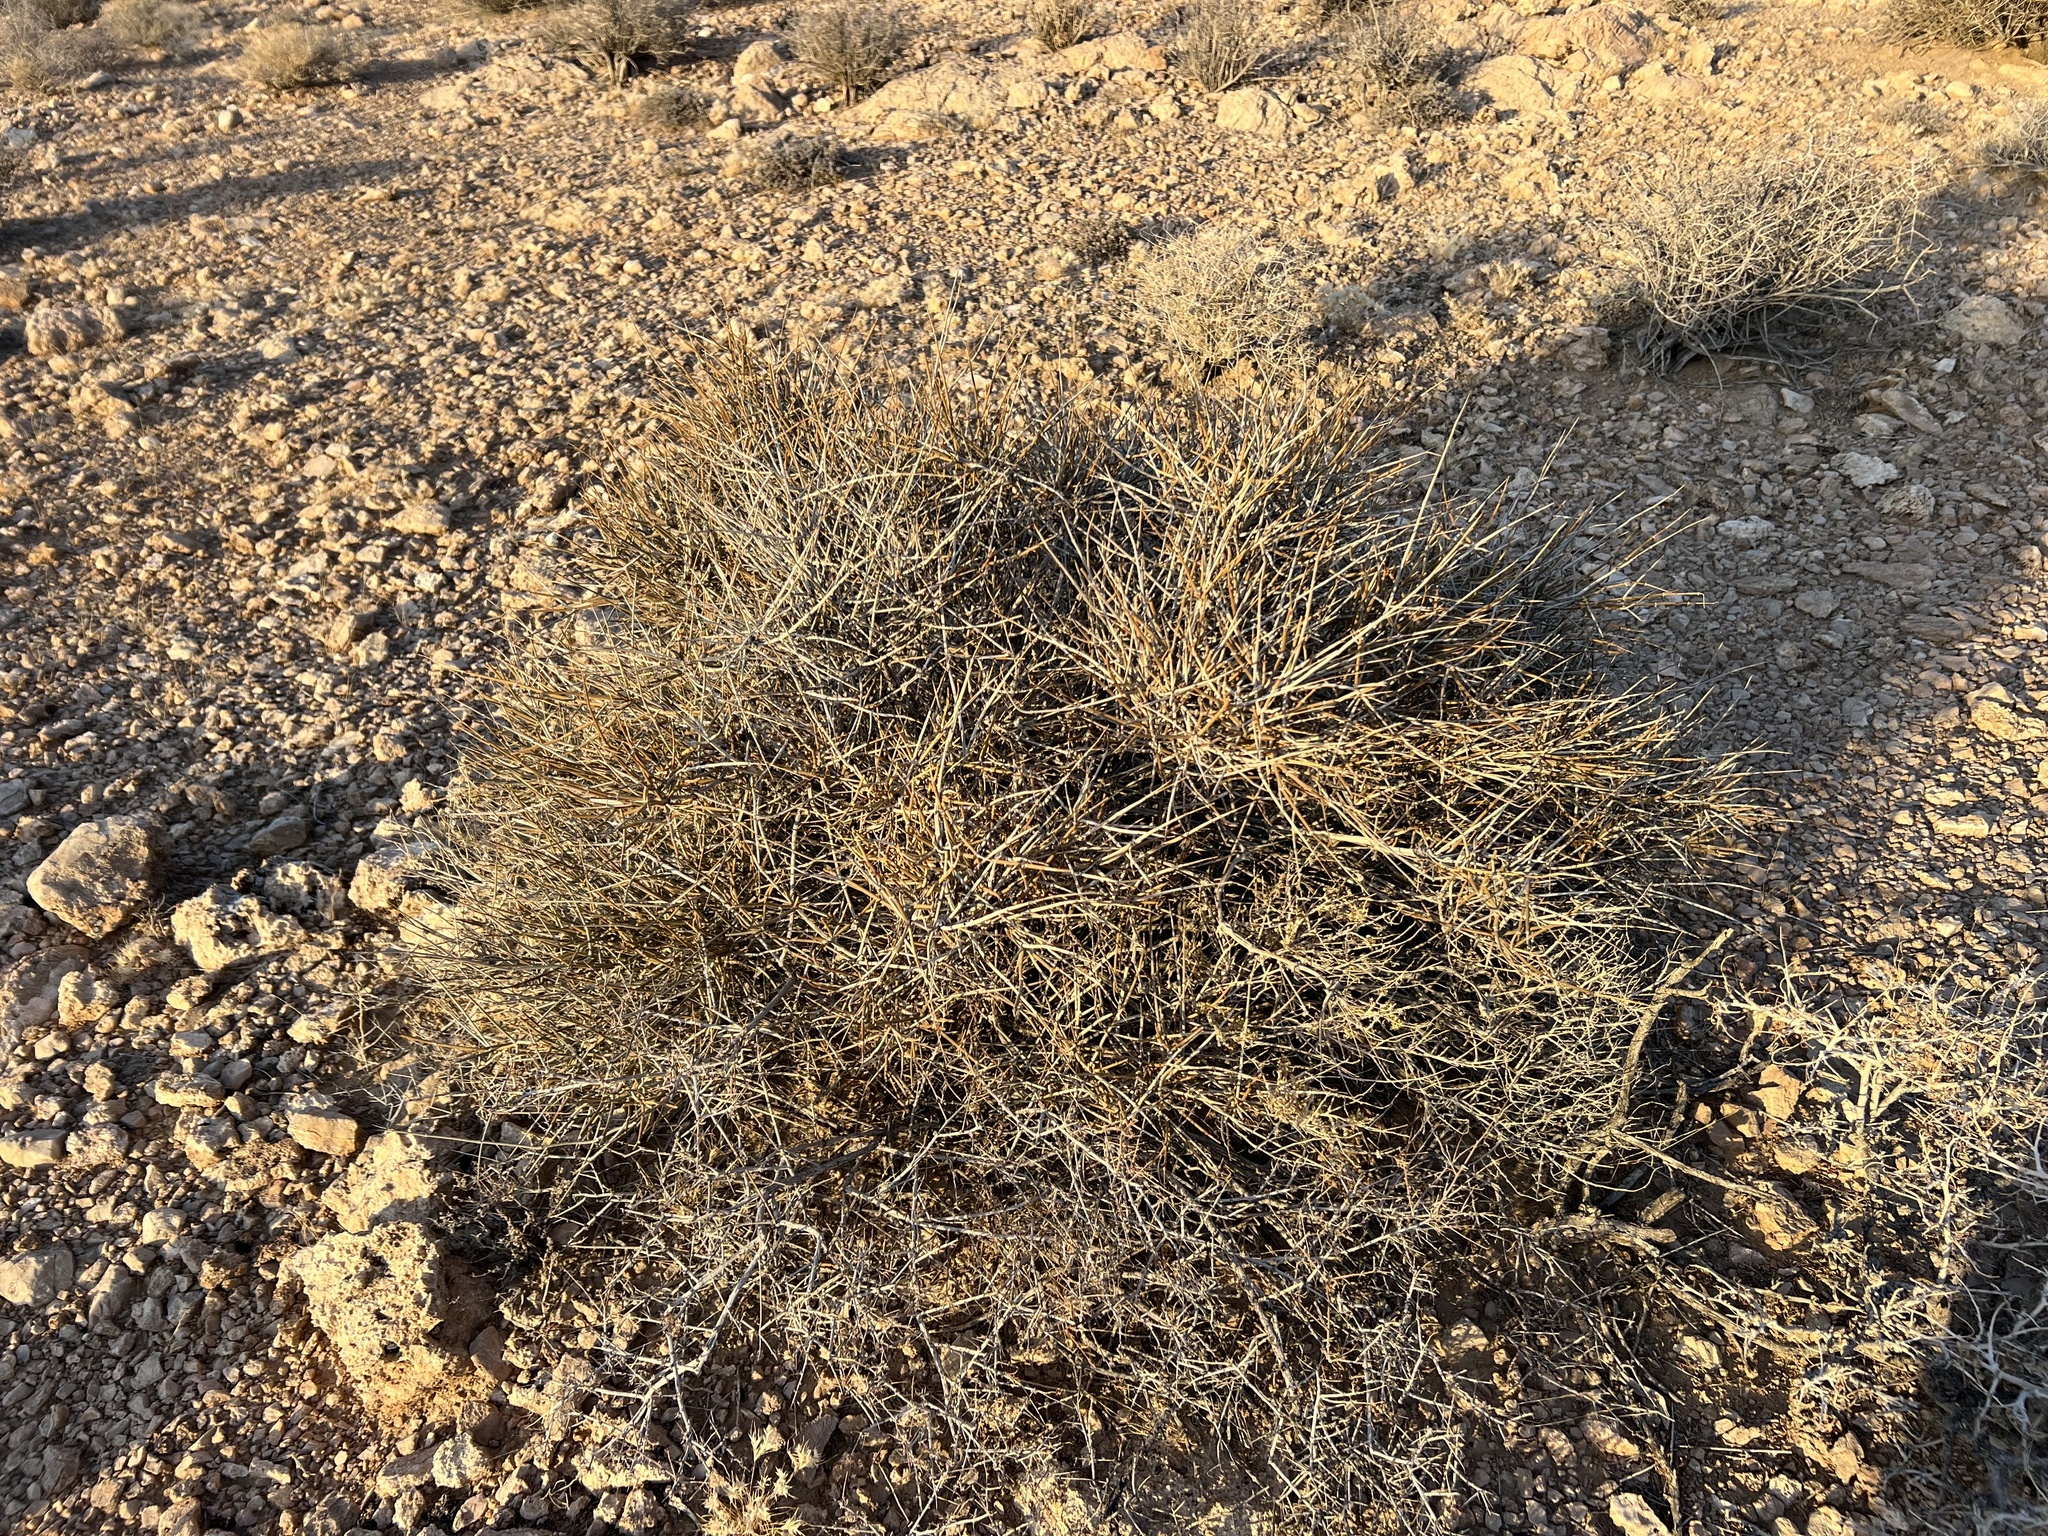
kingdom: Plantae
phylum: Tracheophyta
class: Gnetopsida
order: Ephedrales
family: Ephedraceae
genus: Ephedra
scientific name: Ephedra nevadensis
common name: Gray ephedra
